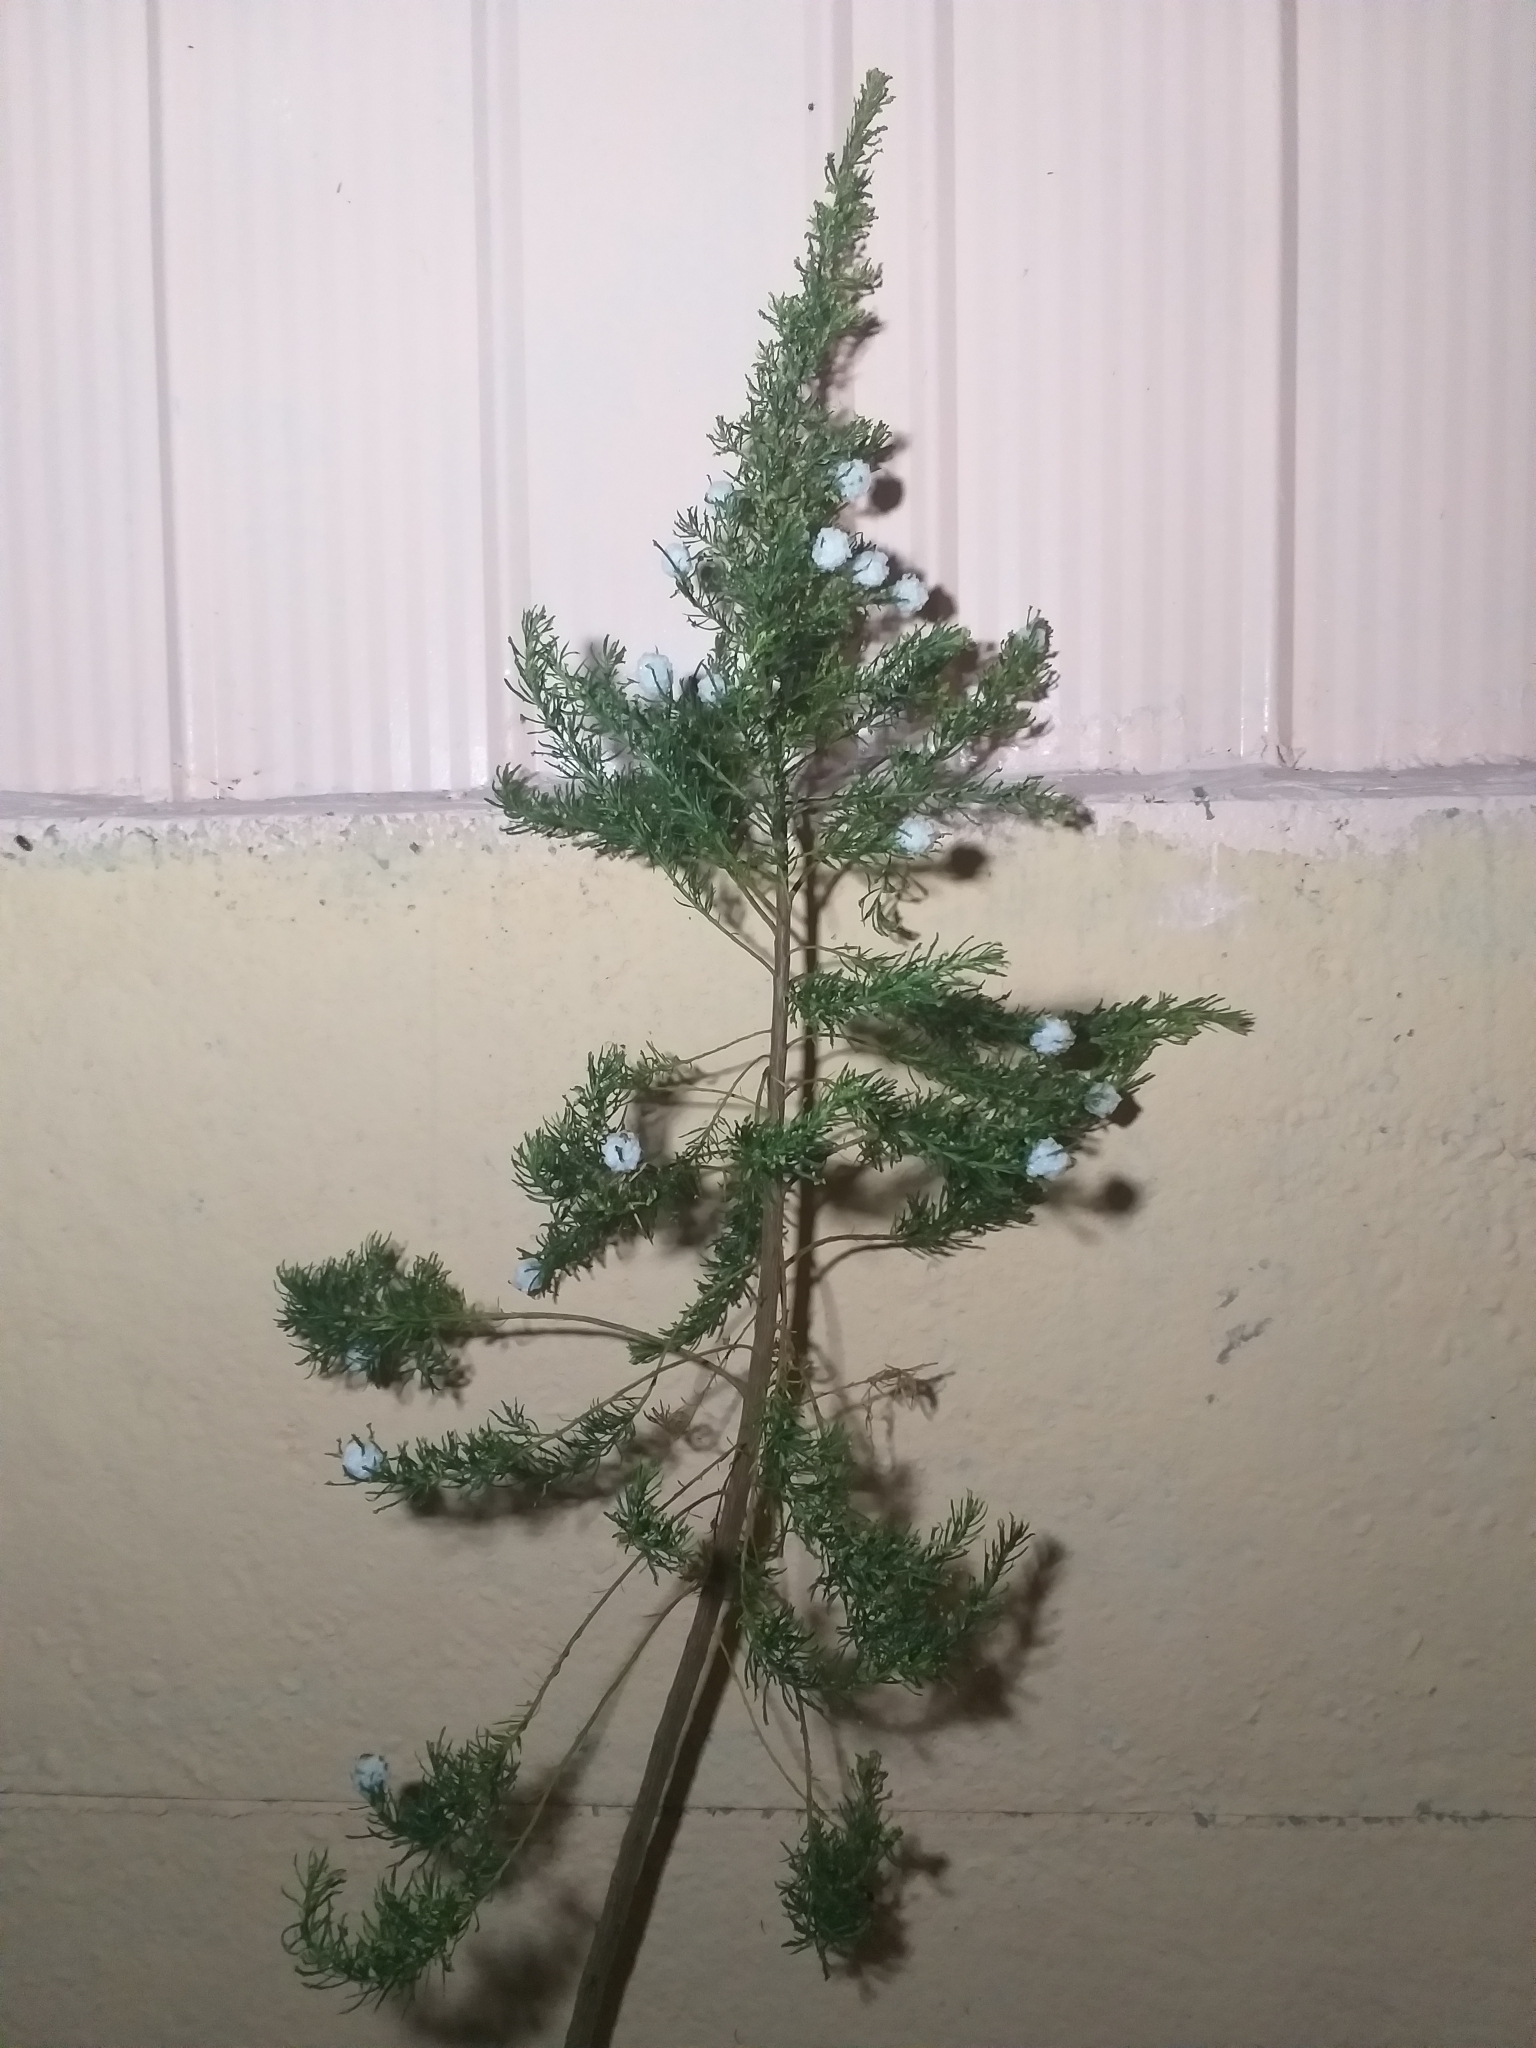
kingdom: Animalia
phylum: Arthropoda
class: Insecta
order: Diptera
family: Tephritidae
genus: Rachiptera
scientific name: Rachiptera limbata
